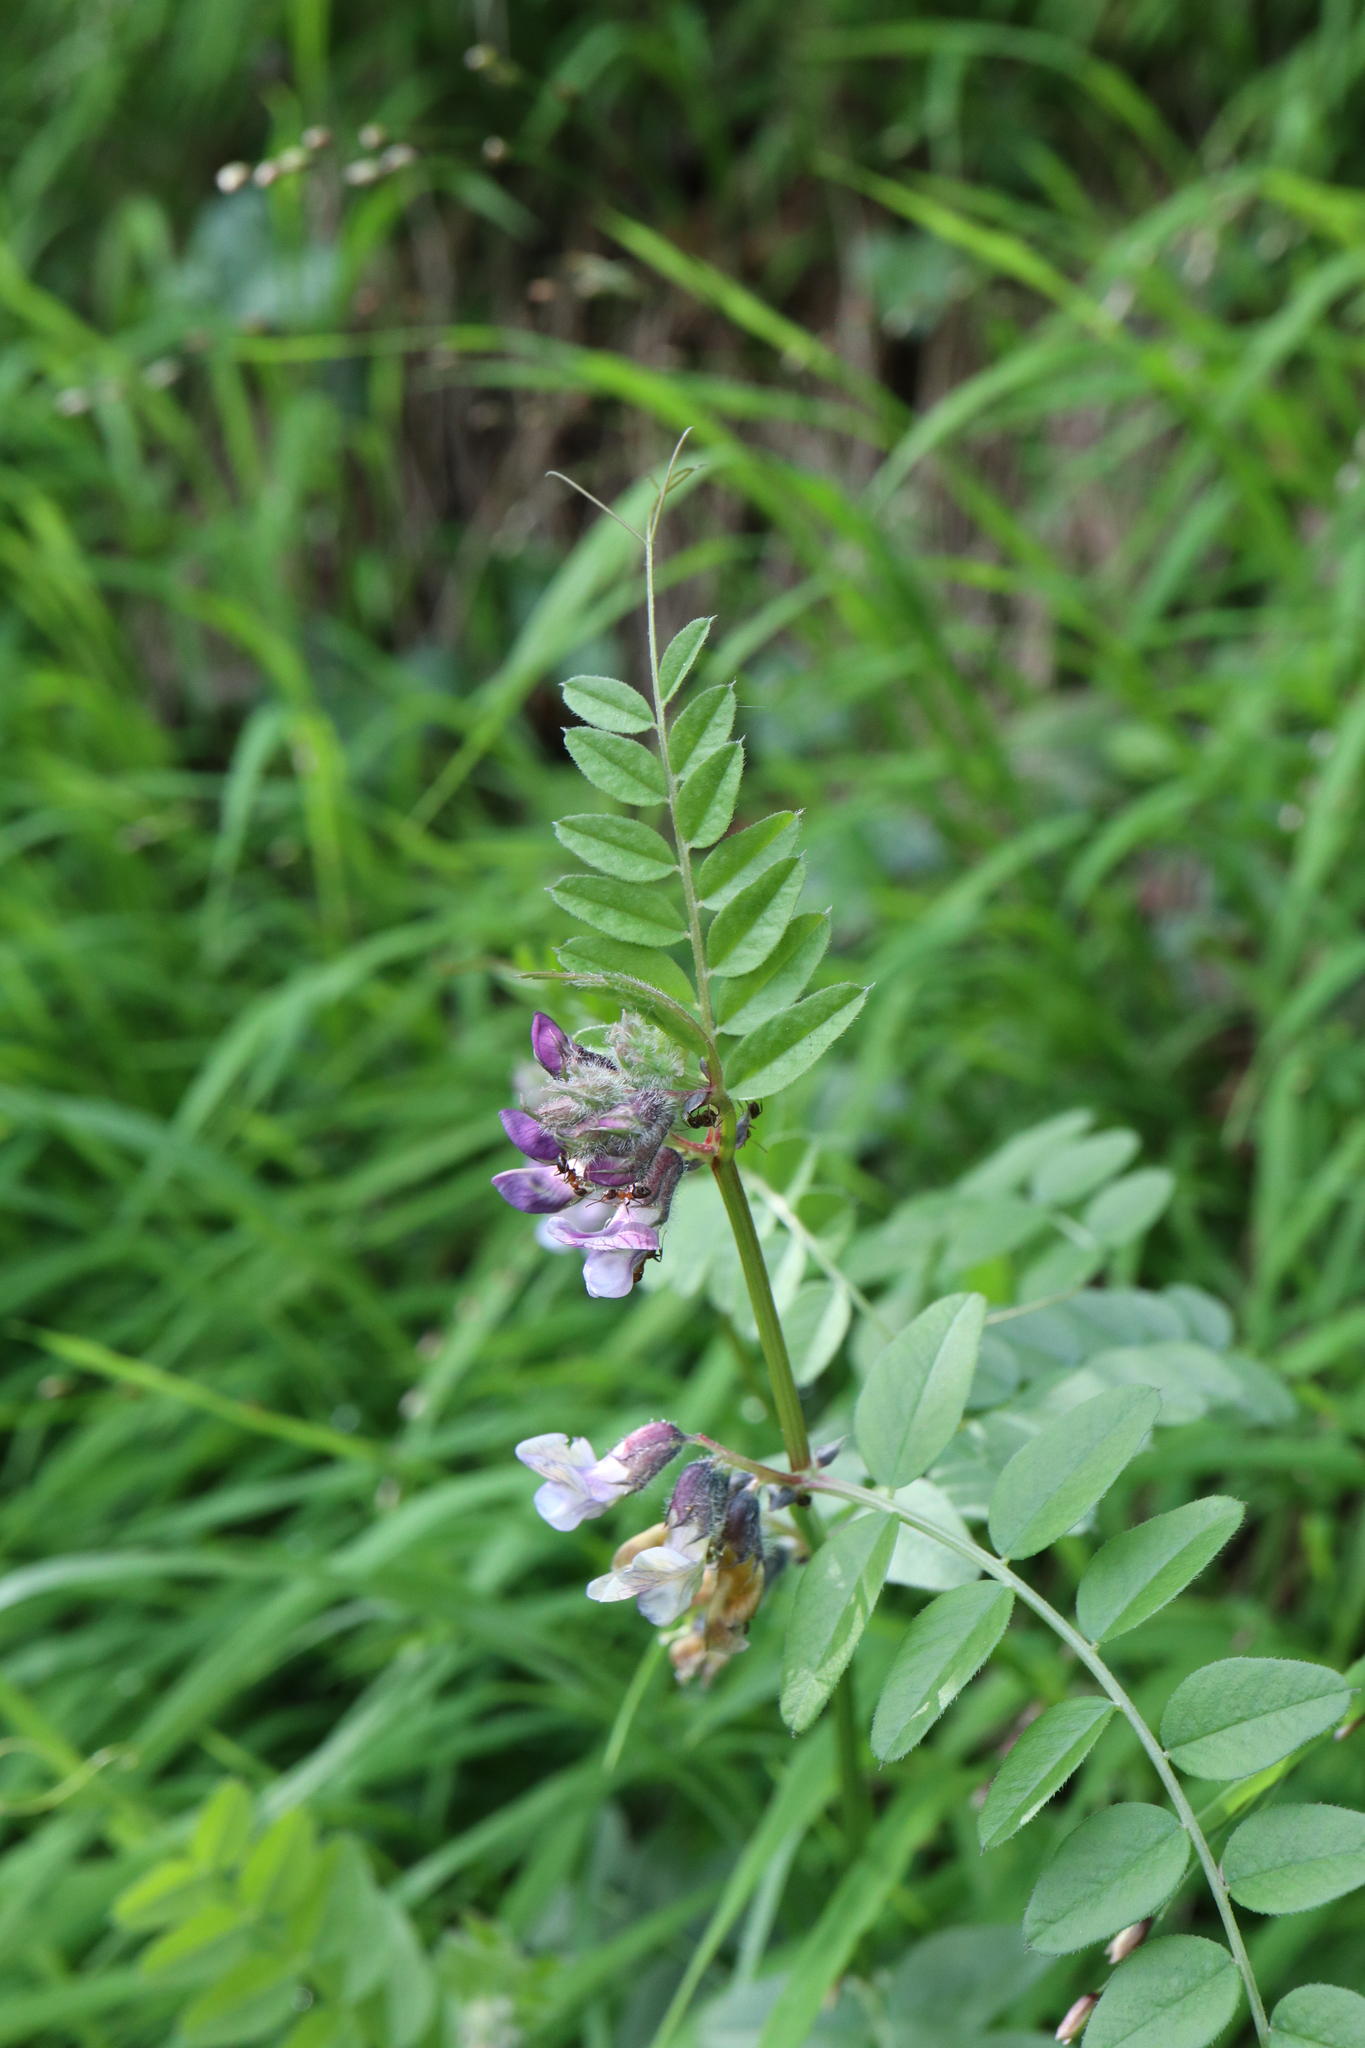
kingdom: Plantae
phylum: Tracheophyta
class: Magnoliopsida
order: Fabales
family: Fabaceae
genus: Vicia
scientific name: Vicia sepium
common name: Bush vetch
